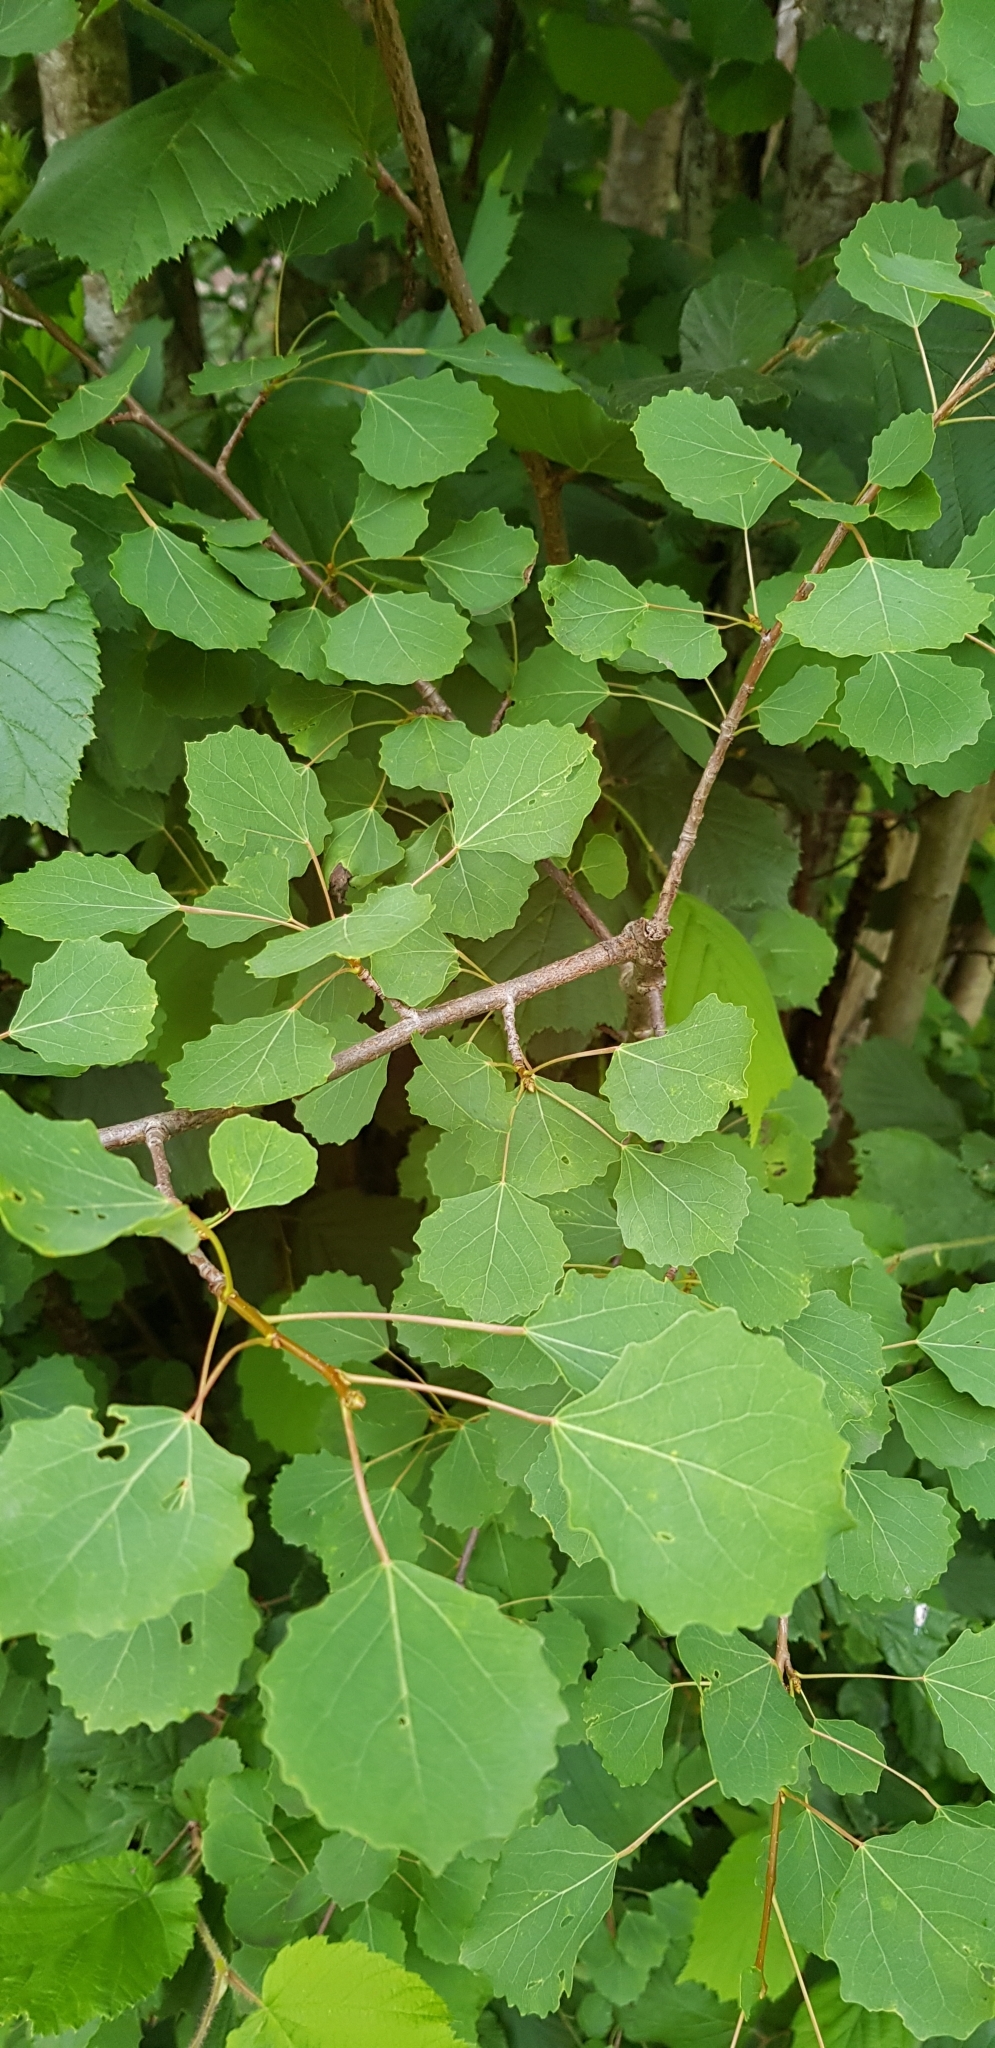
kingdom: Plantae
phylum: Tracheophyta
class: Magnoliopsida
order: Malpighiales
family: Salicaceae
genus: Populus
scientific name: Populus tremula
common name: European aspen
